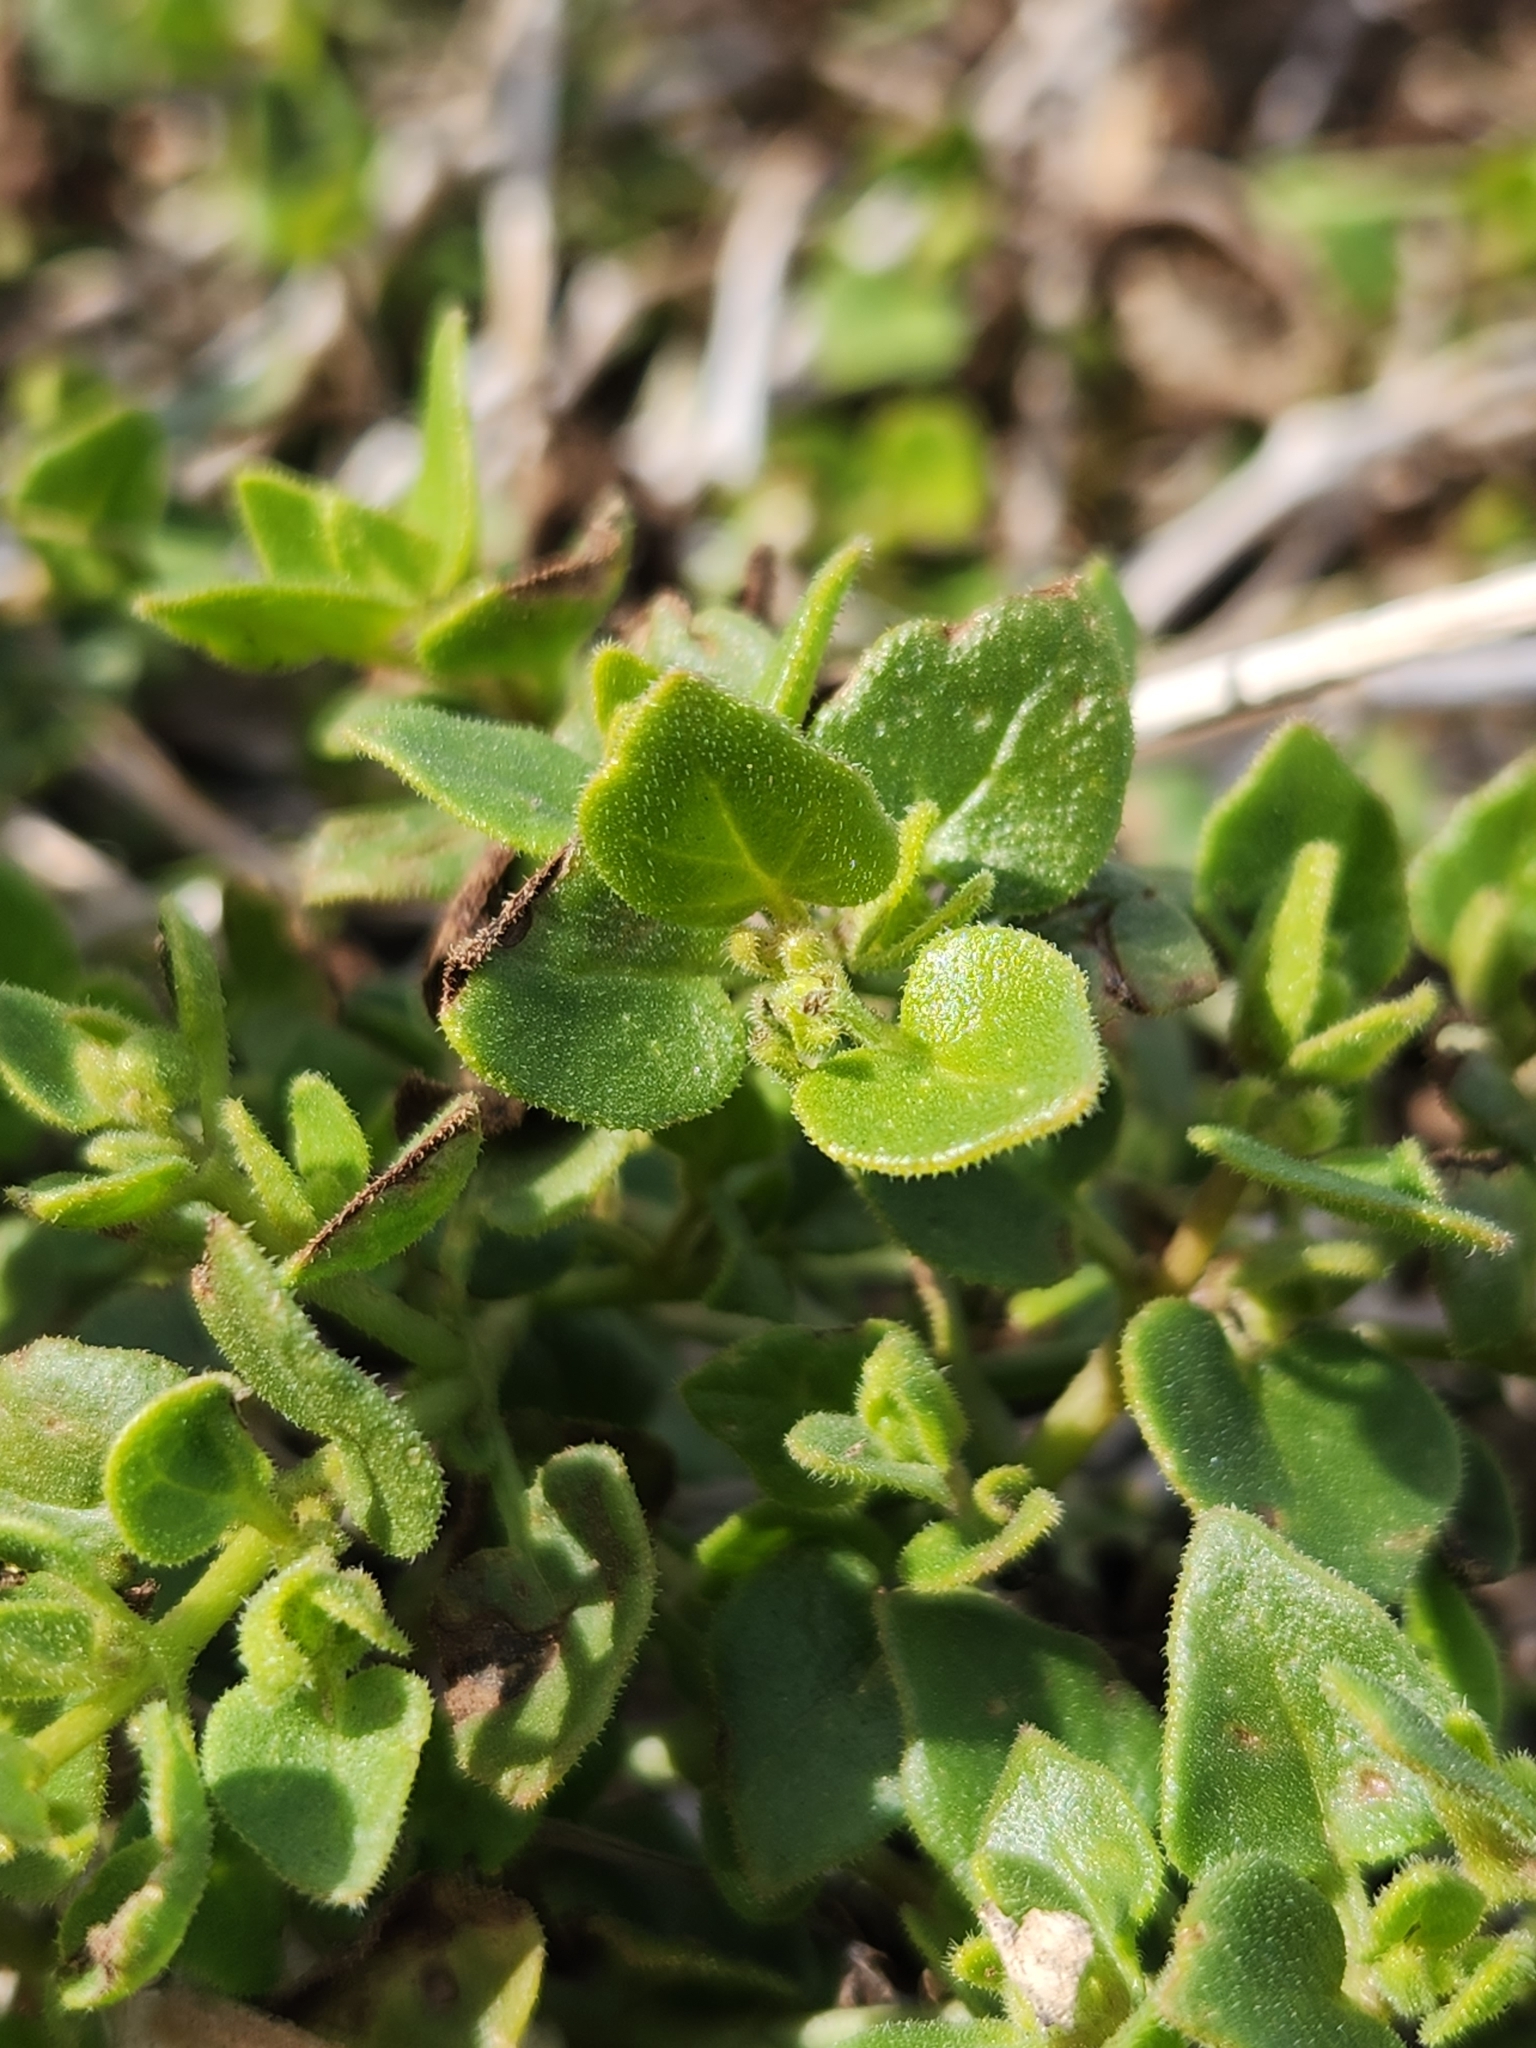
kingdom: Plantae
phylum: Tracheophyta
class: Magnoliopsida
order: Caryophyllales
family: Nyctaginaceae
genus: Mirabilis
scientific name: Mirabilis laevis
